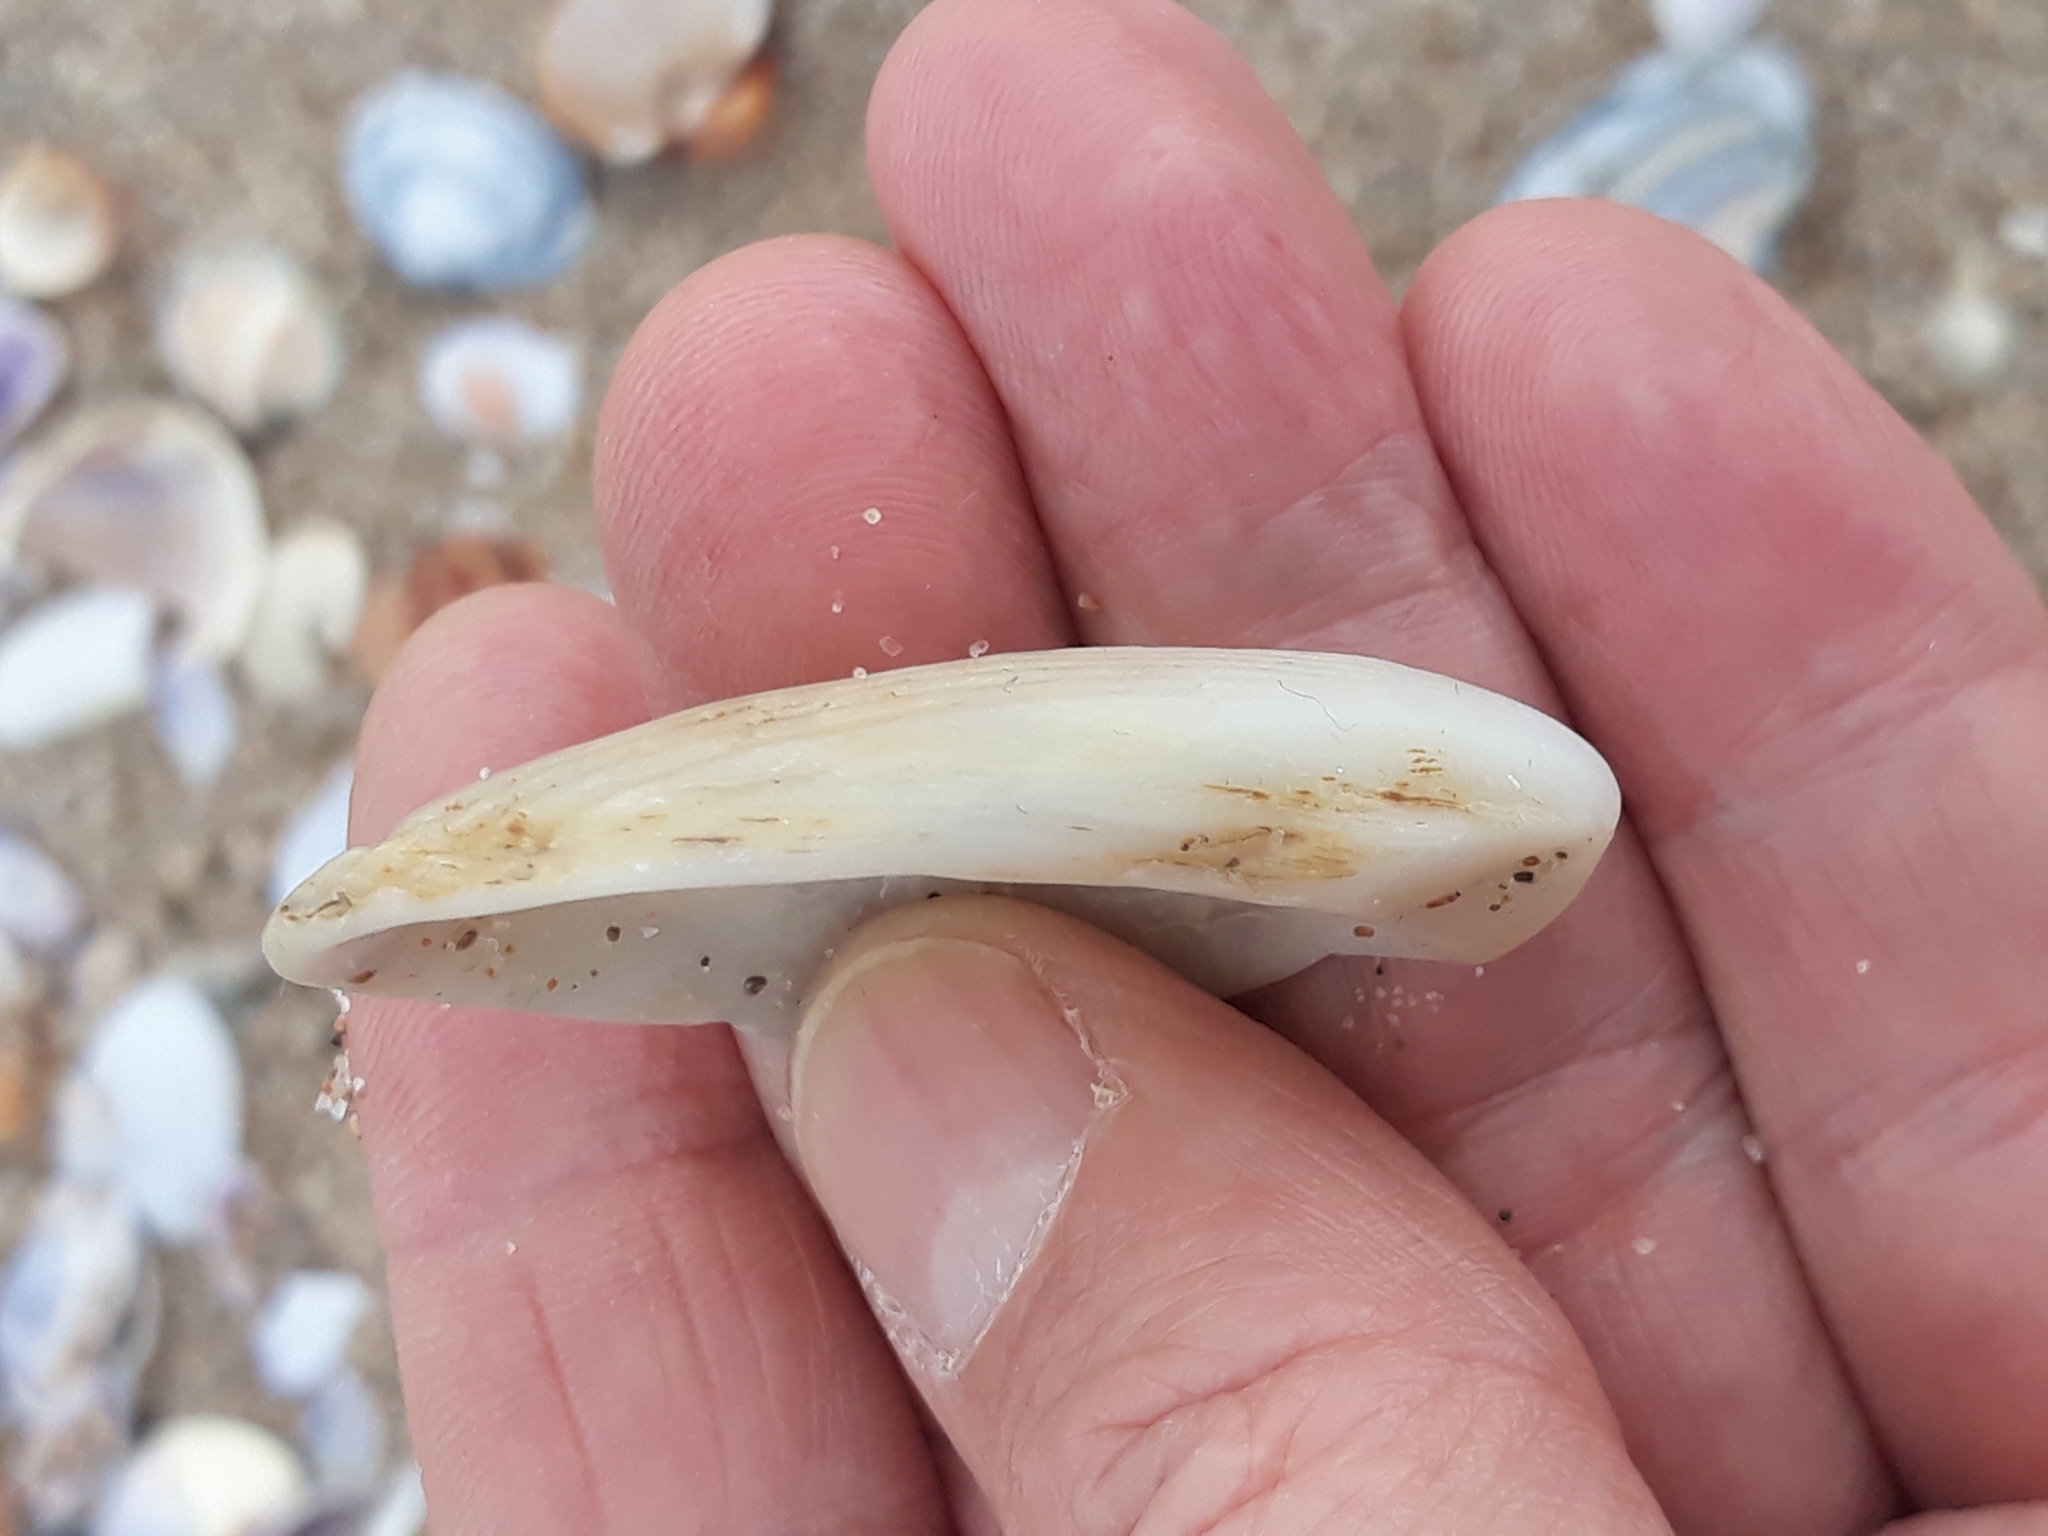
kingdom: Animalia
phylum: Mollusca
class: Bivalvia
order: Limida
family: Limidae
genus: Lima
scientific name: Lima lima
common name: Frilled file shell
